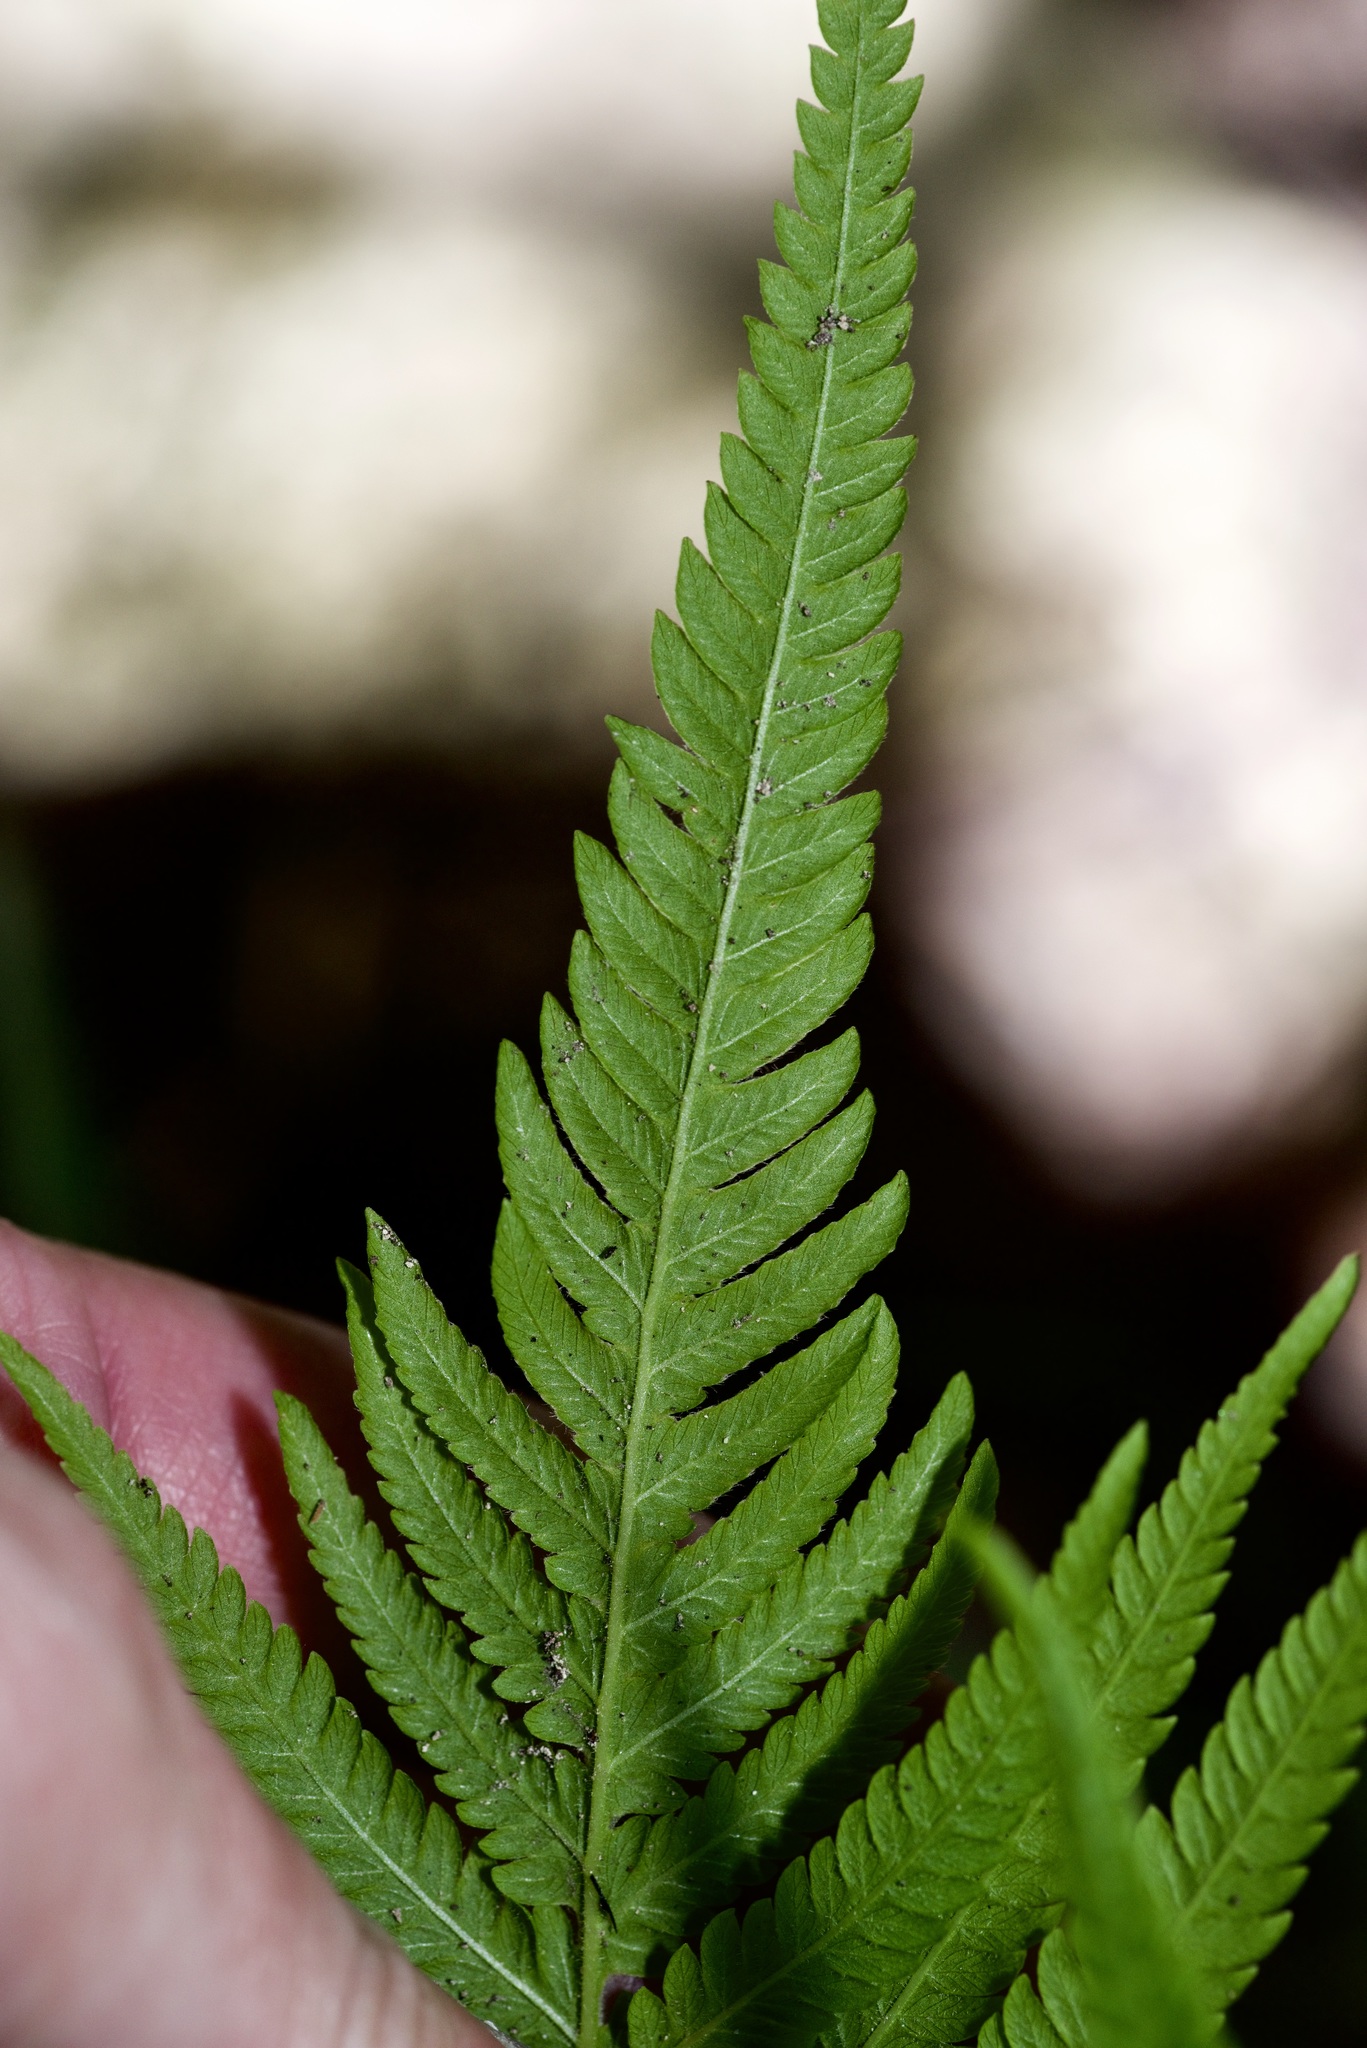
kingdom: Plantae
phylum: Tracheophyta
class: Polypodiopsida
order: Polypodiales
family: Thelypteridaceae
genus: Pelazoneuron
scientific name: Pelazoneuron ovatum
